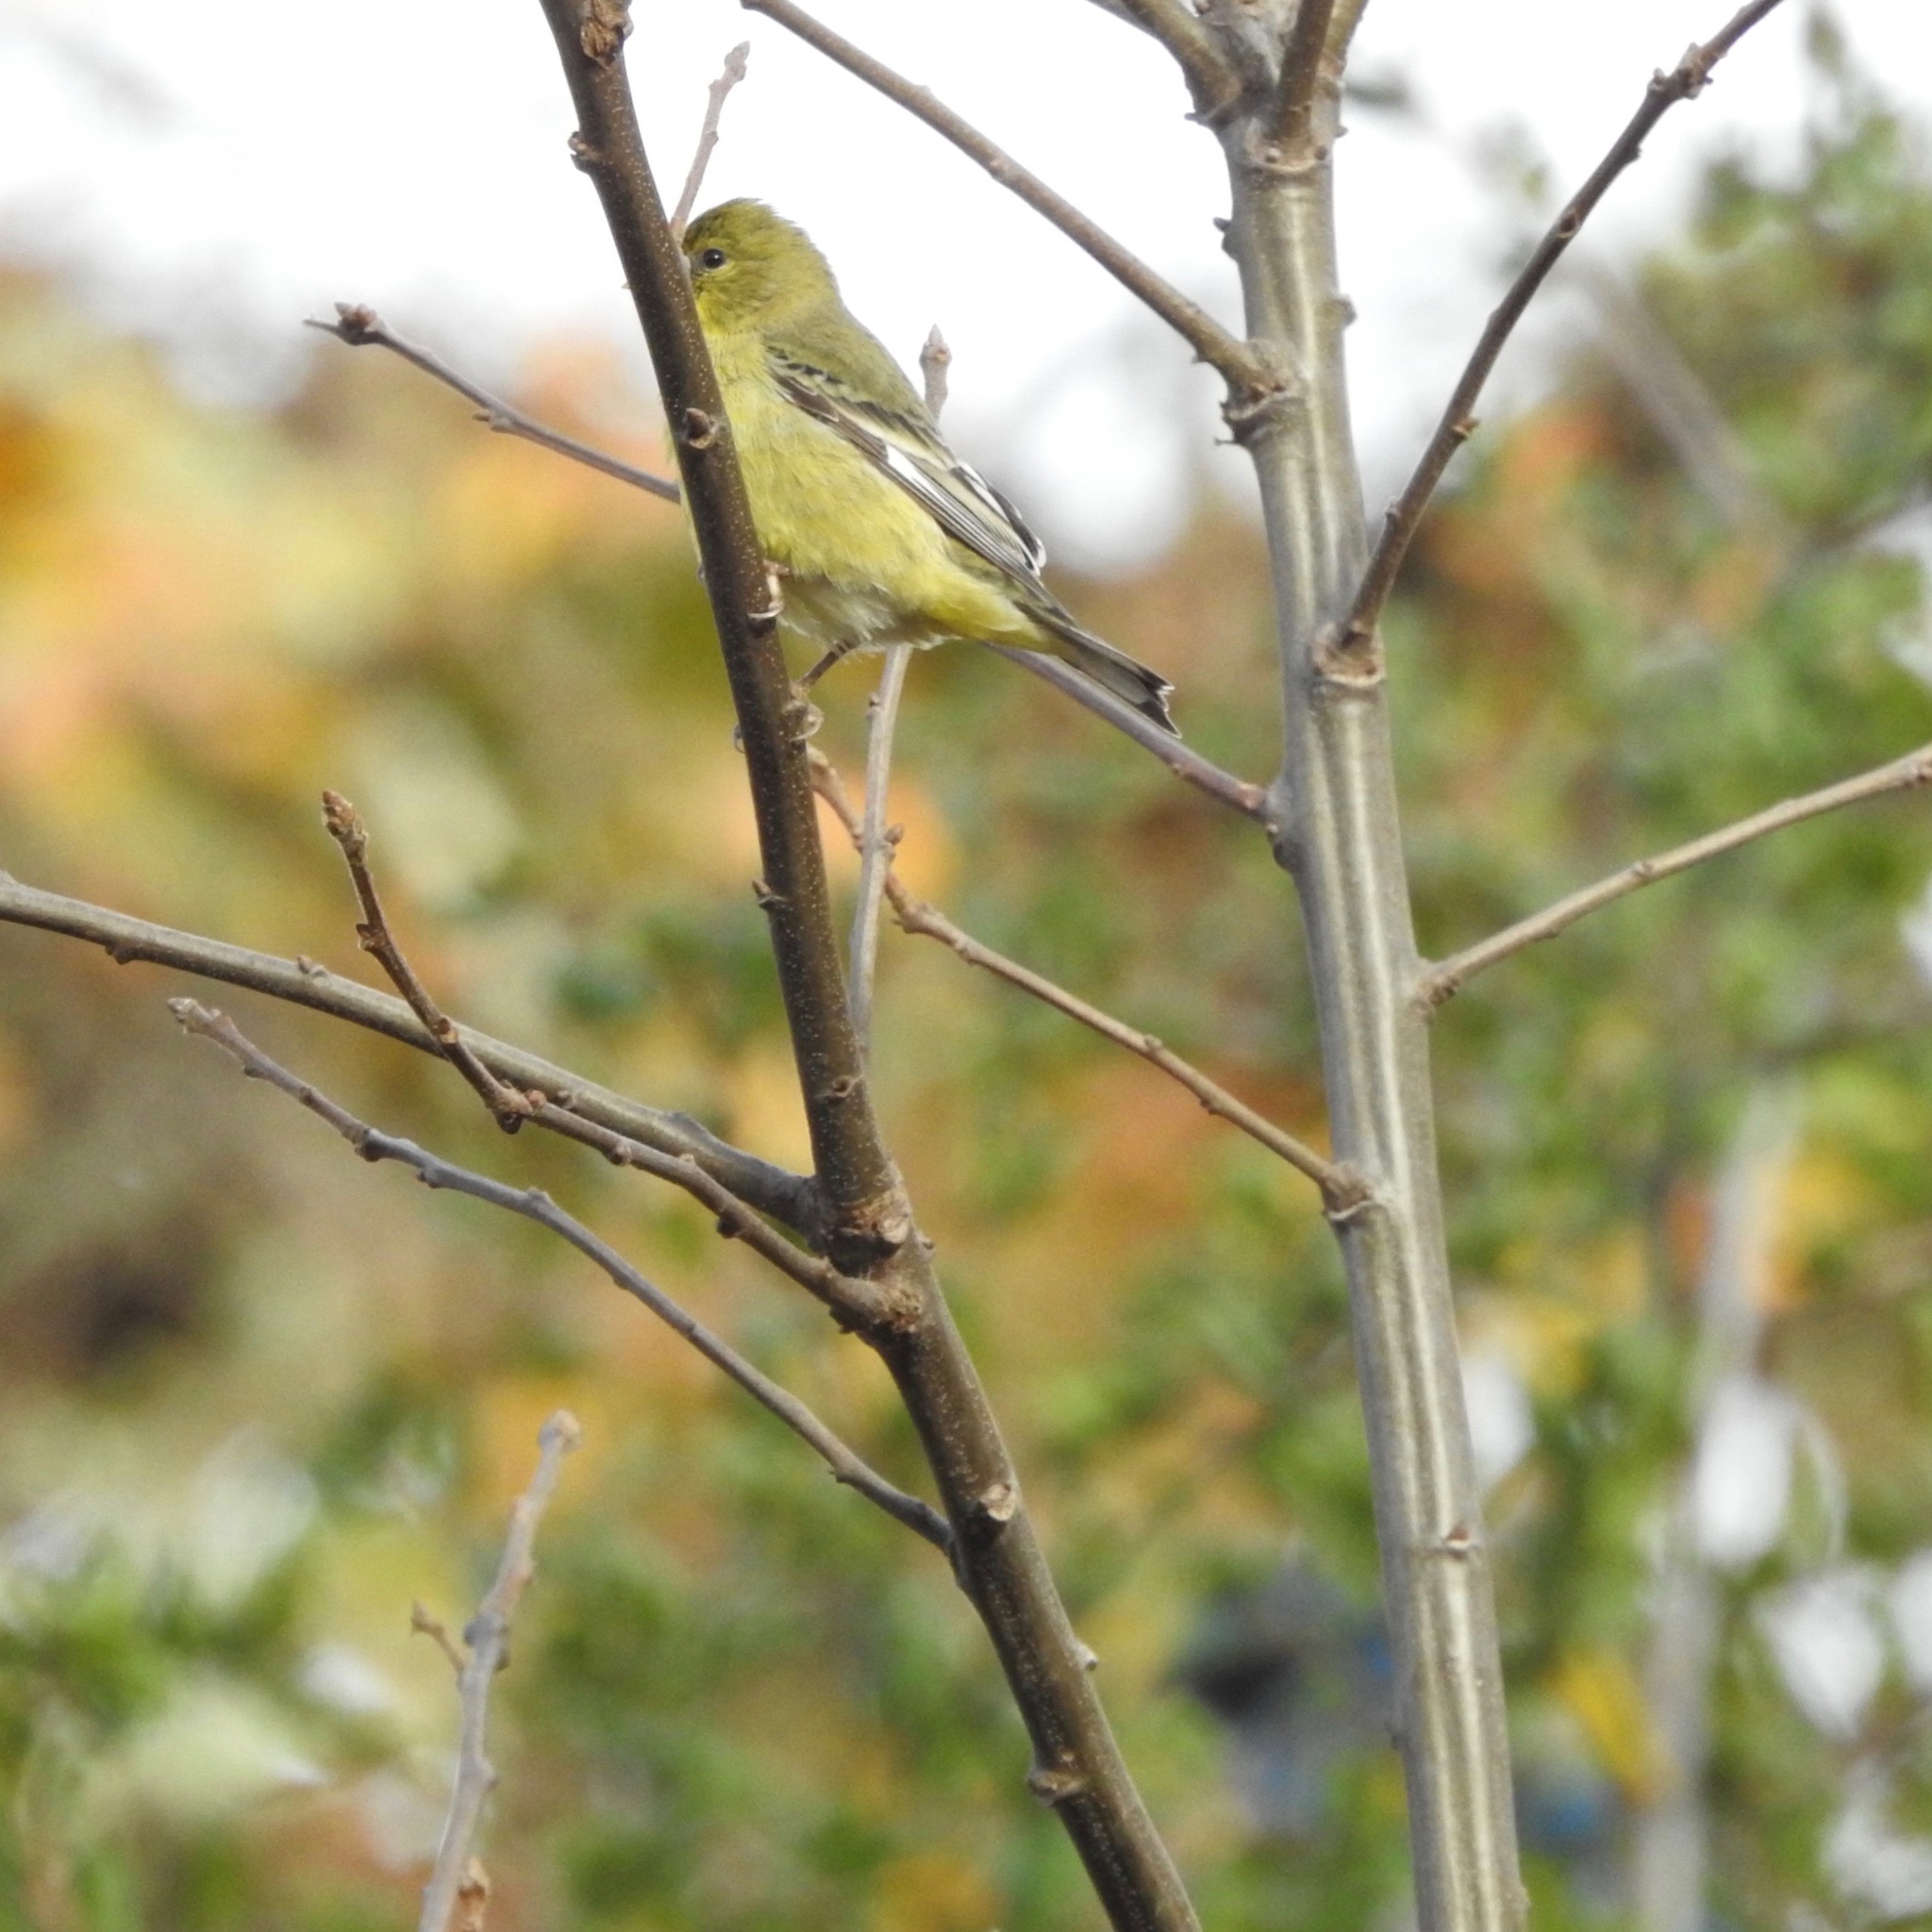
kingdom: Animalia
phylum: Chordata
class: Aves
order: Passeriformes
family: Fringillidae
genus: Spinus
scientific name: Spinus psaltria
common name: Lesser goldfinch
